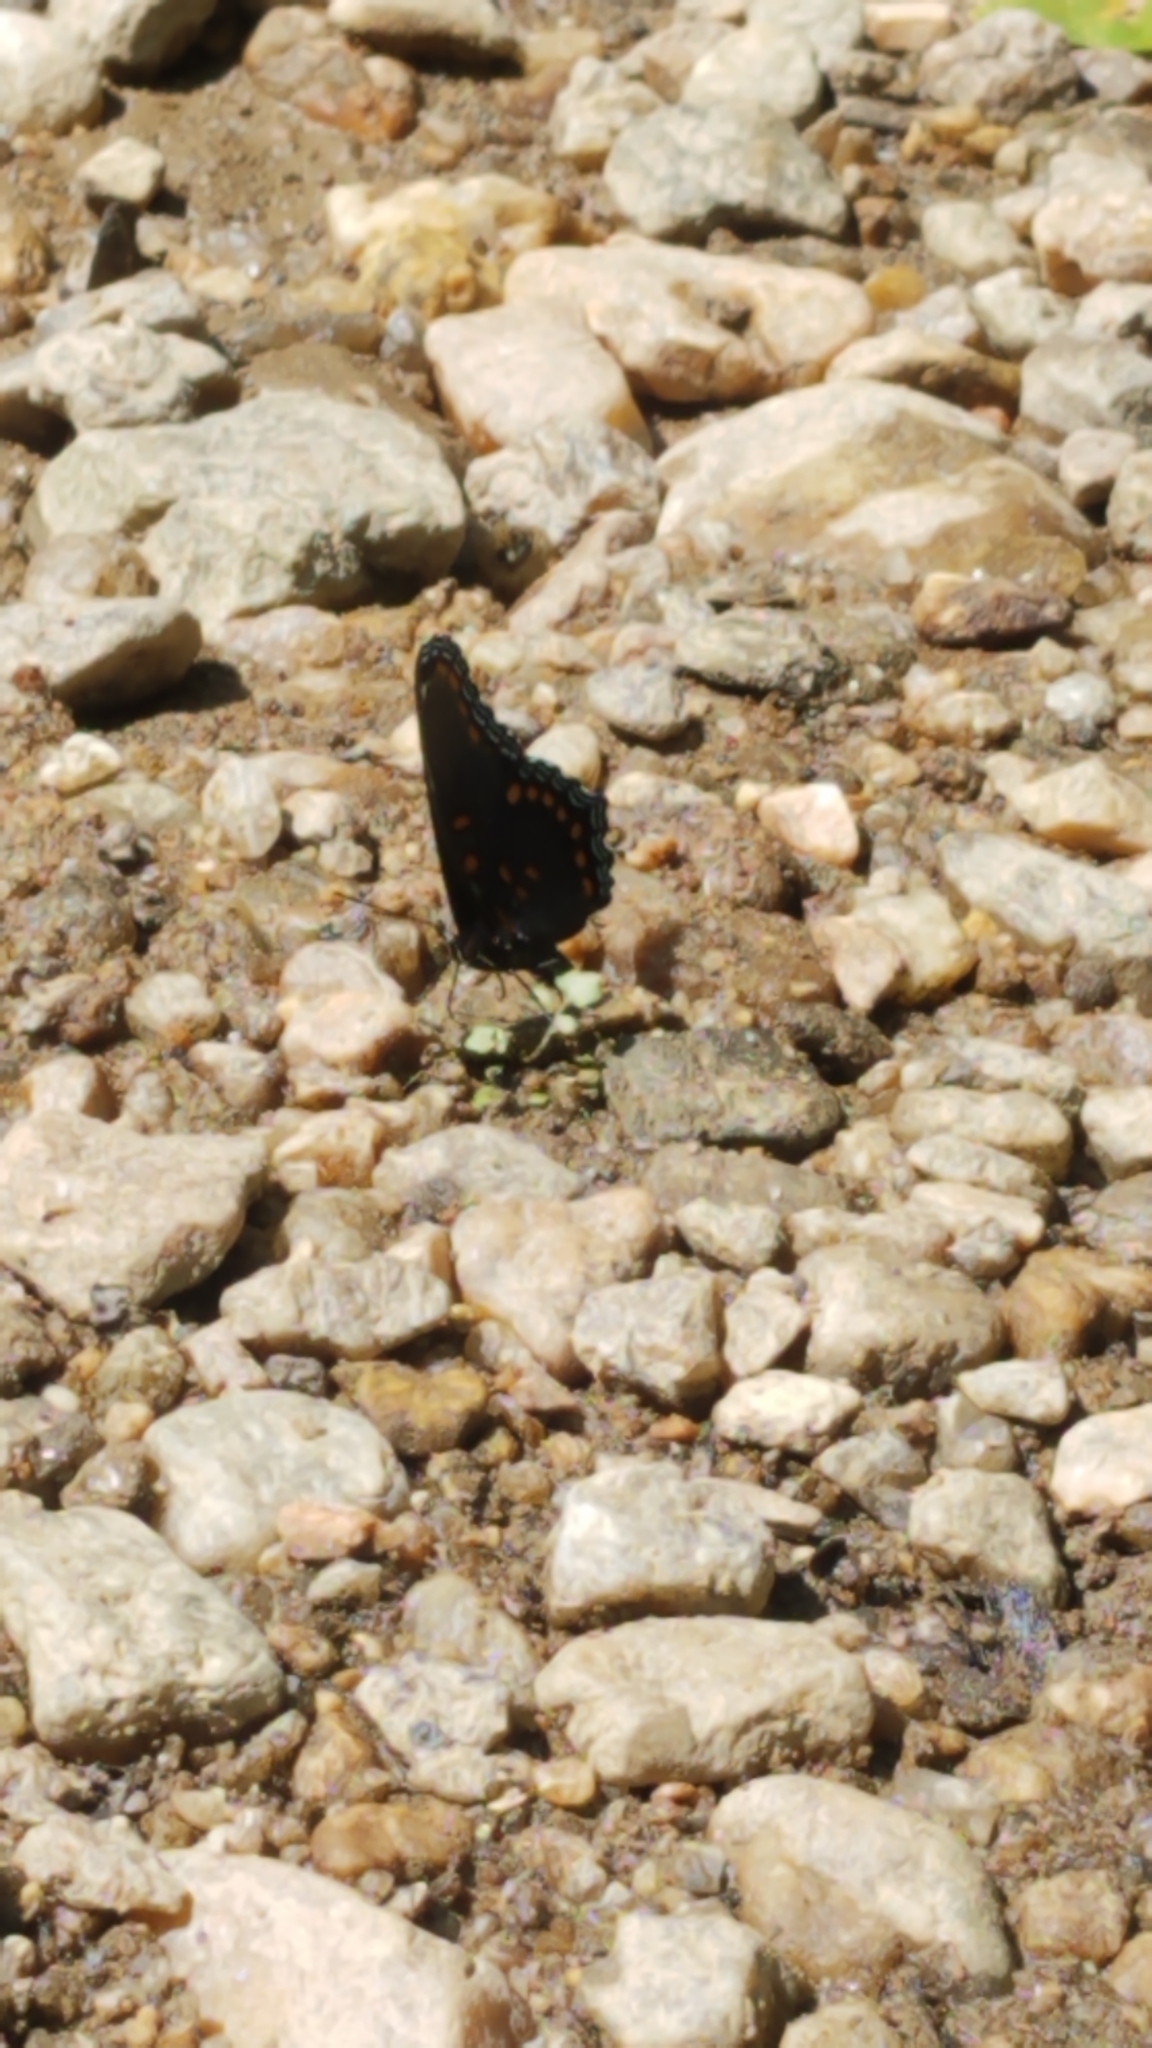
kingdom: Animalia
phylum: Arthropoda
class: Insecta
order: Lepidoptera
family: Nymphalidae
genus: Limenitis
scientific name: Limenitis arthemis
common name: Red-spotted admiral
